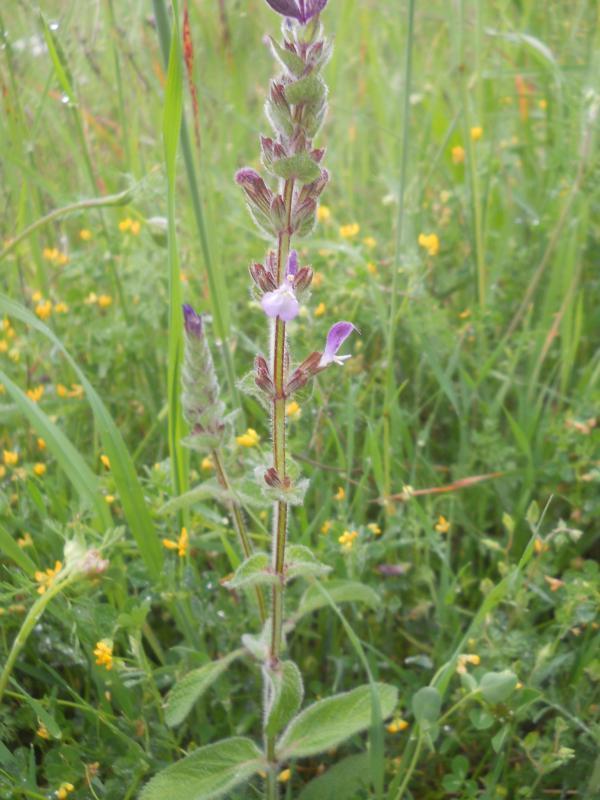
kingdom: Plantae
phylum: Tracheophyta
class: Magnoliopsida
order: Lamiales
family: Lamiaceae
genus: Salvia
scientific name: Salvia viridis
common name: Annual clary
